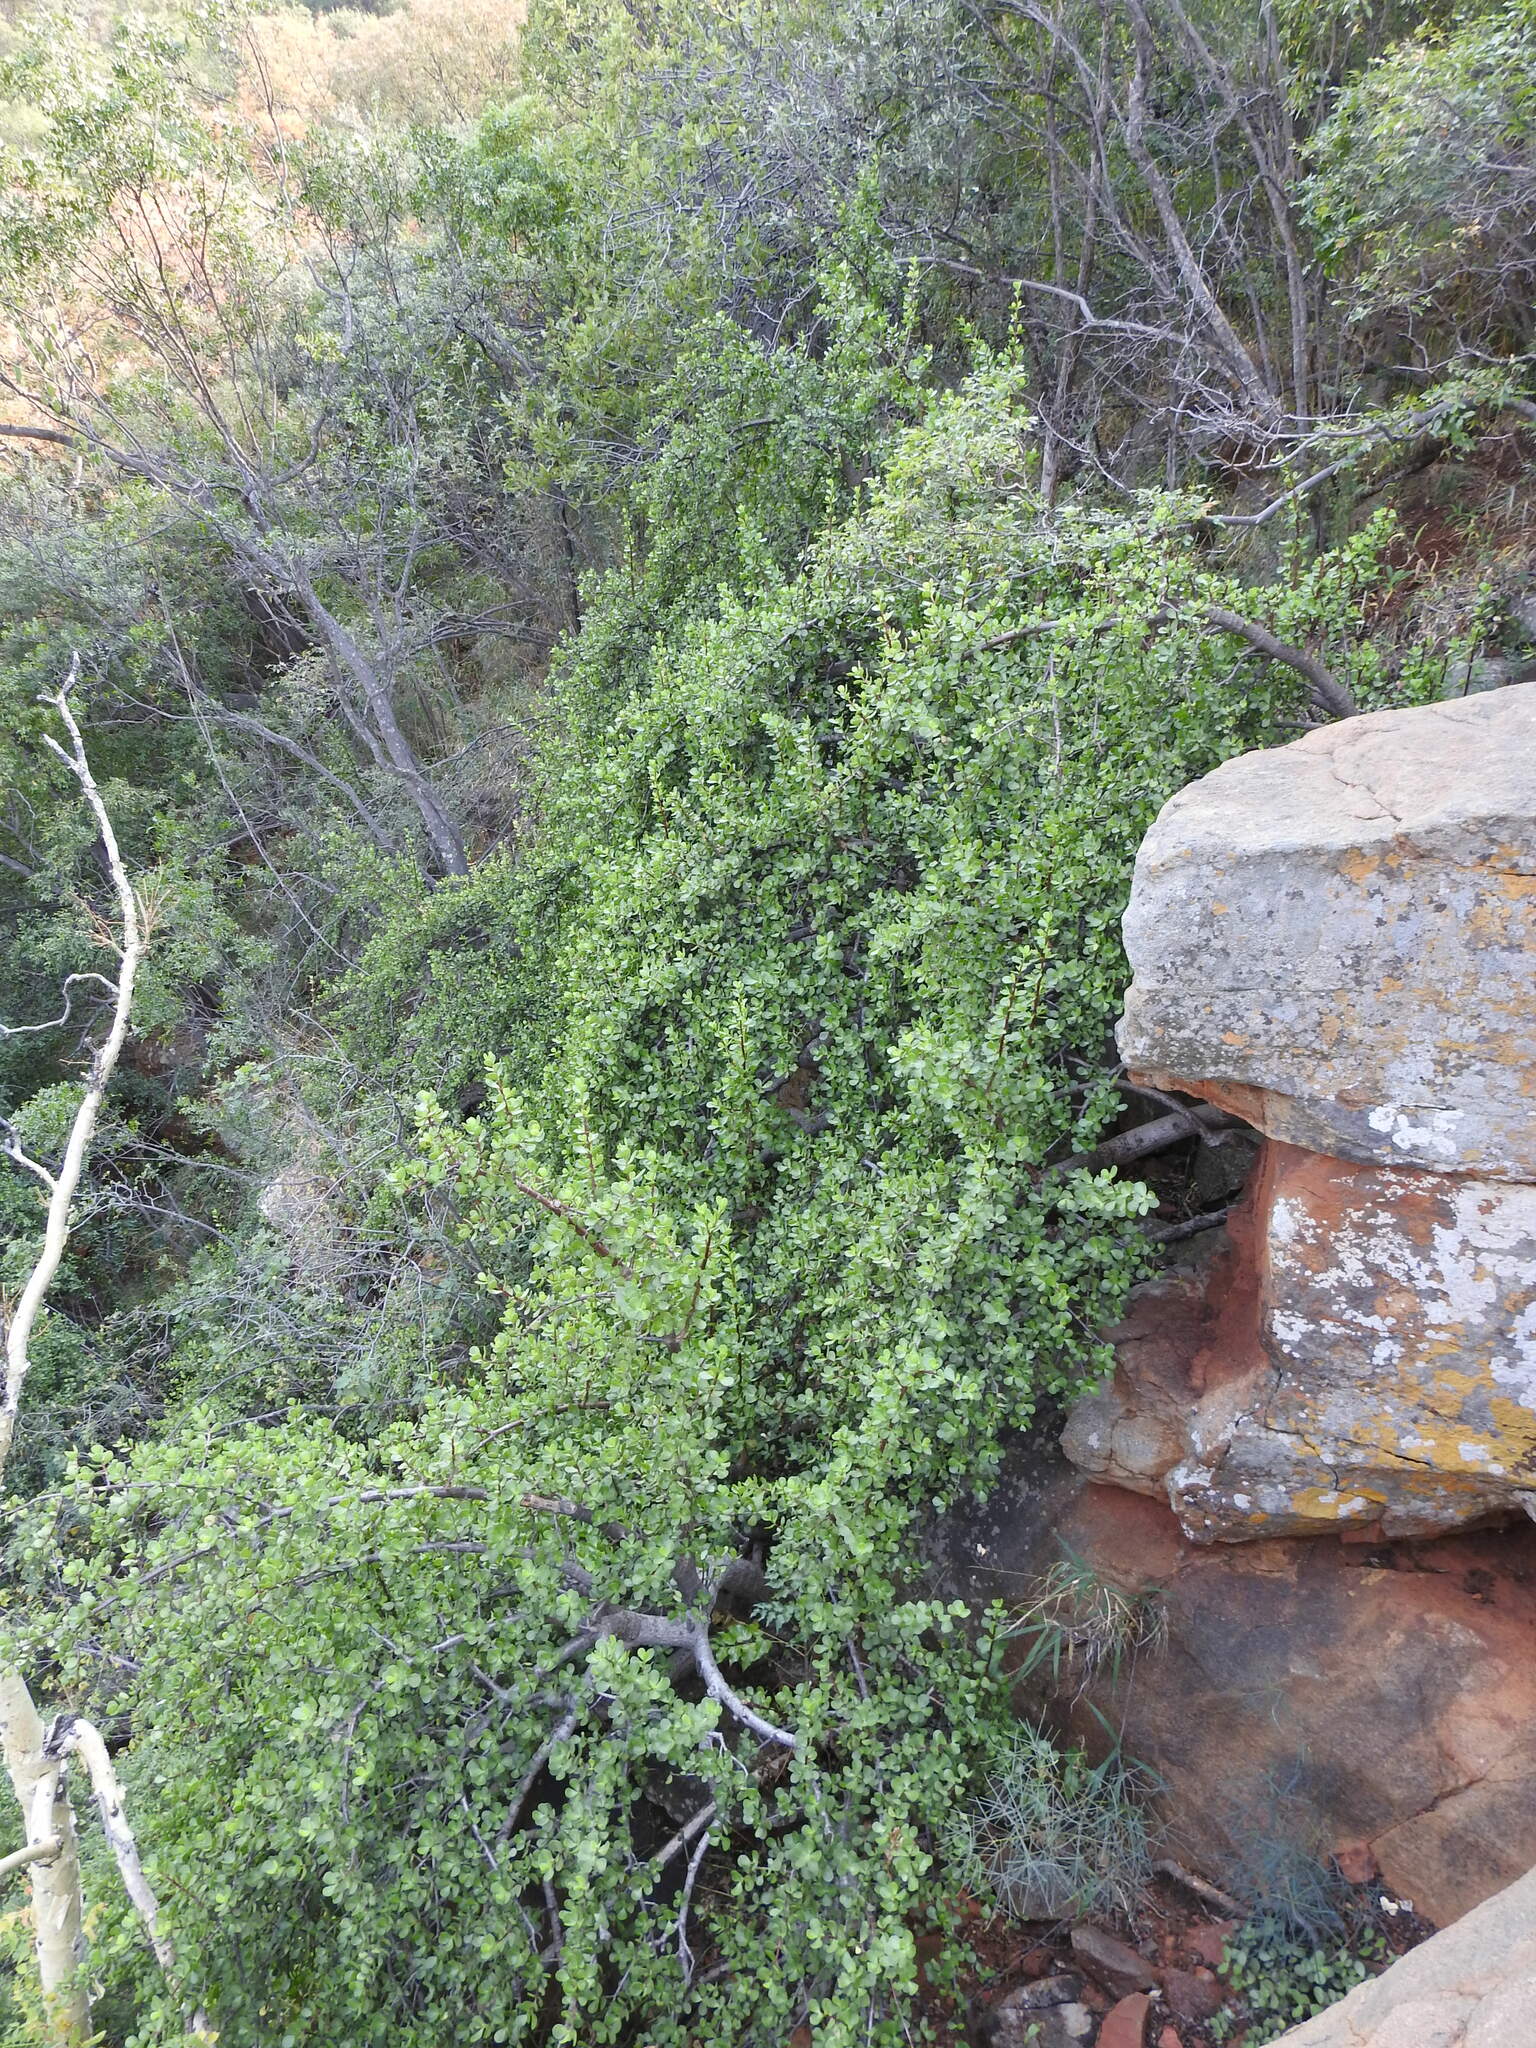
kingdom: Plantae
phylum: Tracheophyta
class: Magnoliopsida
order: Caryophyllales
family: Didiereaceae
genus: Portulacaria
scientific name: Portulacaria afra
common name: Elephant-bush
